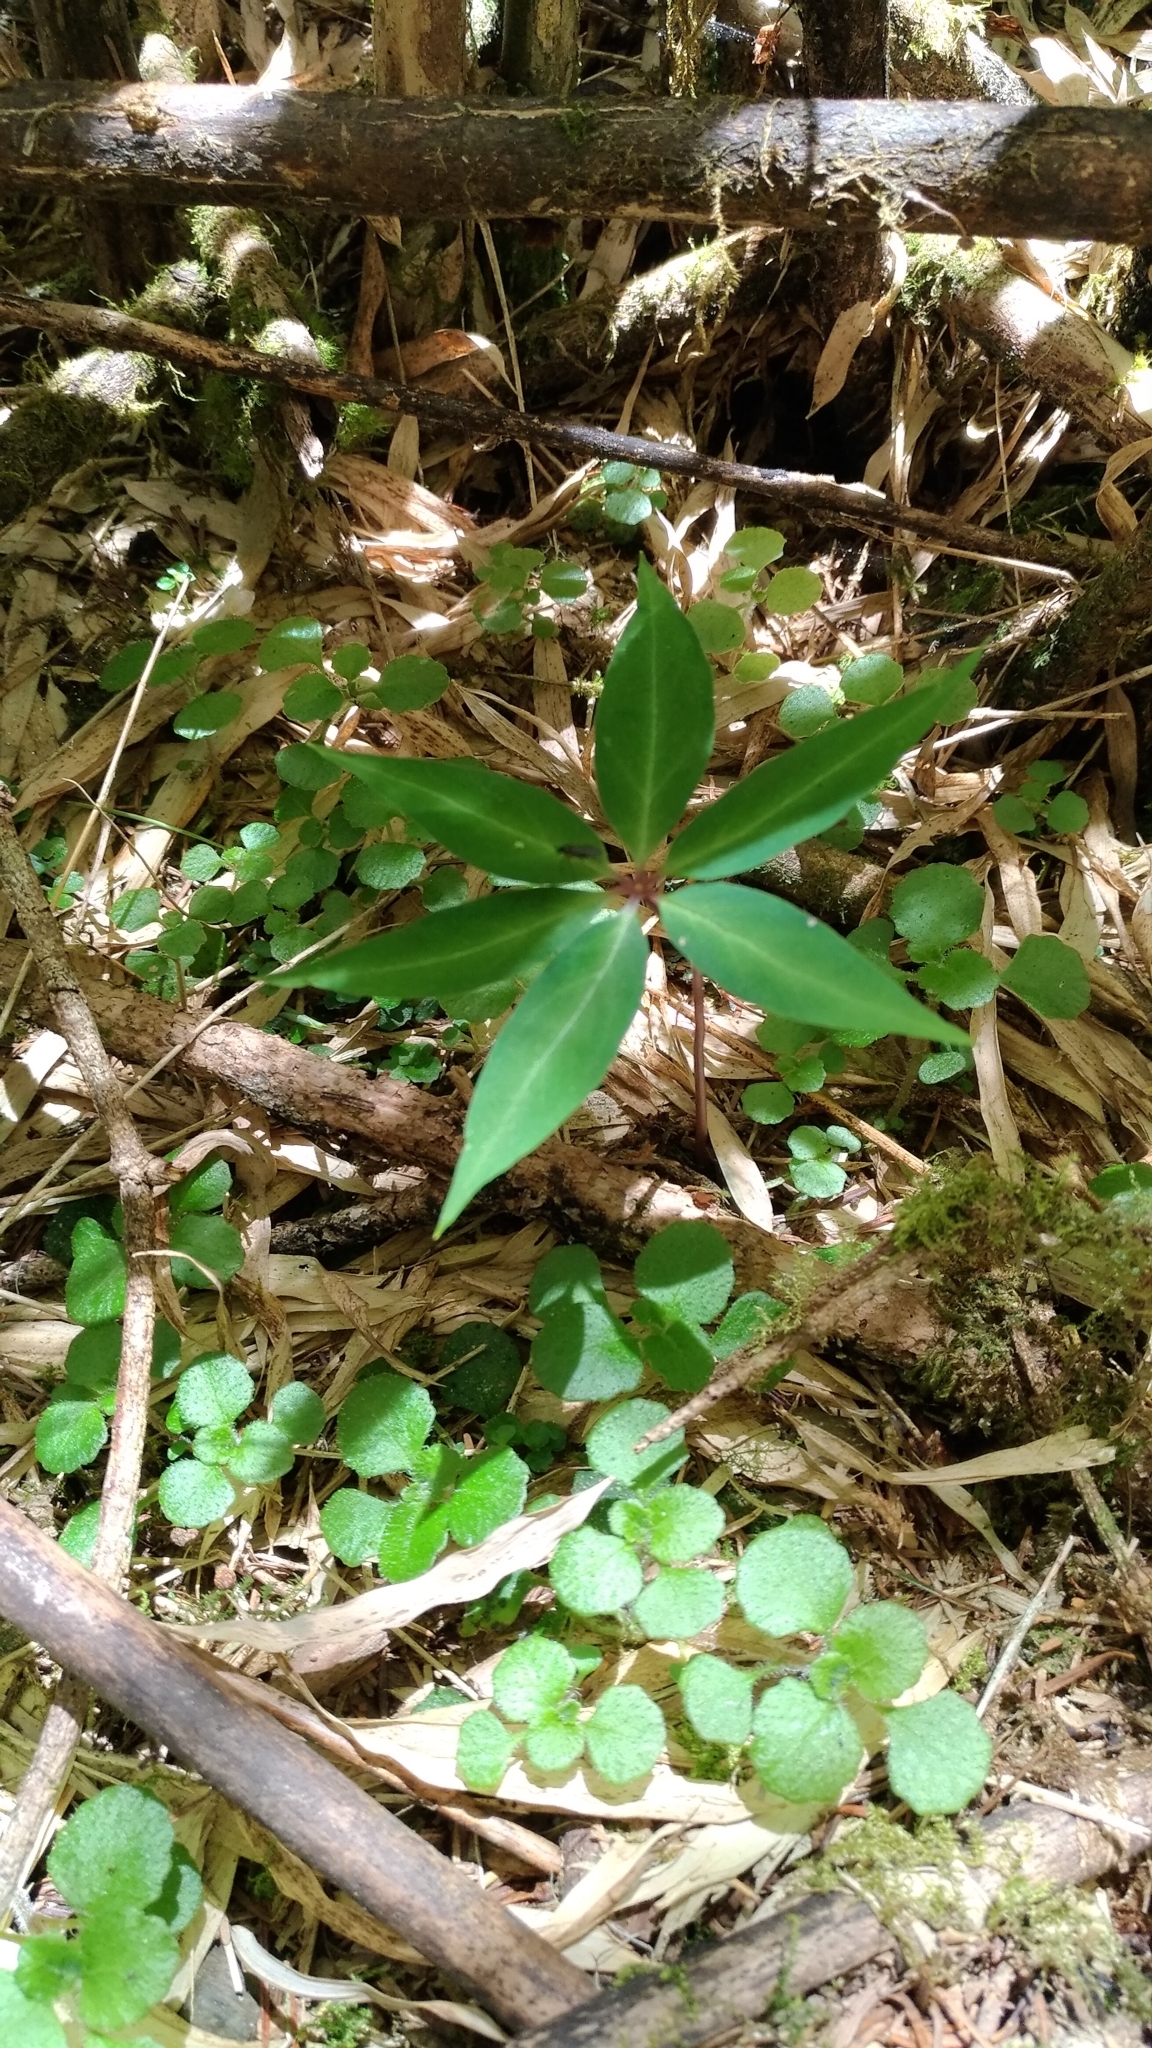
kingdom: Plantae
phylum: Tracheophyta
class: Liliopsida
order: Liliales
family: Melanthiaceae
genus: Paris
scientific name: Paris lancifolia
